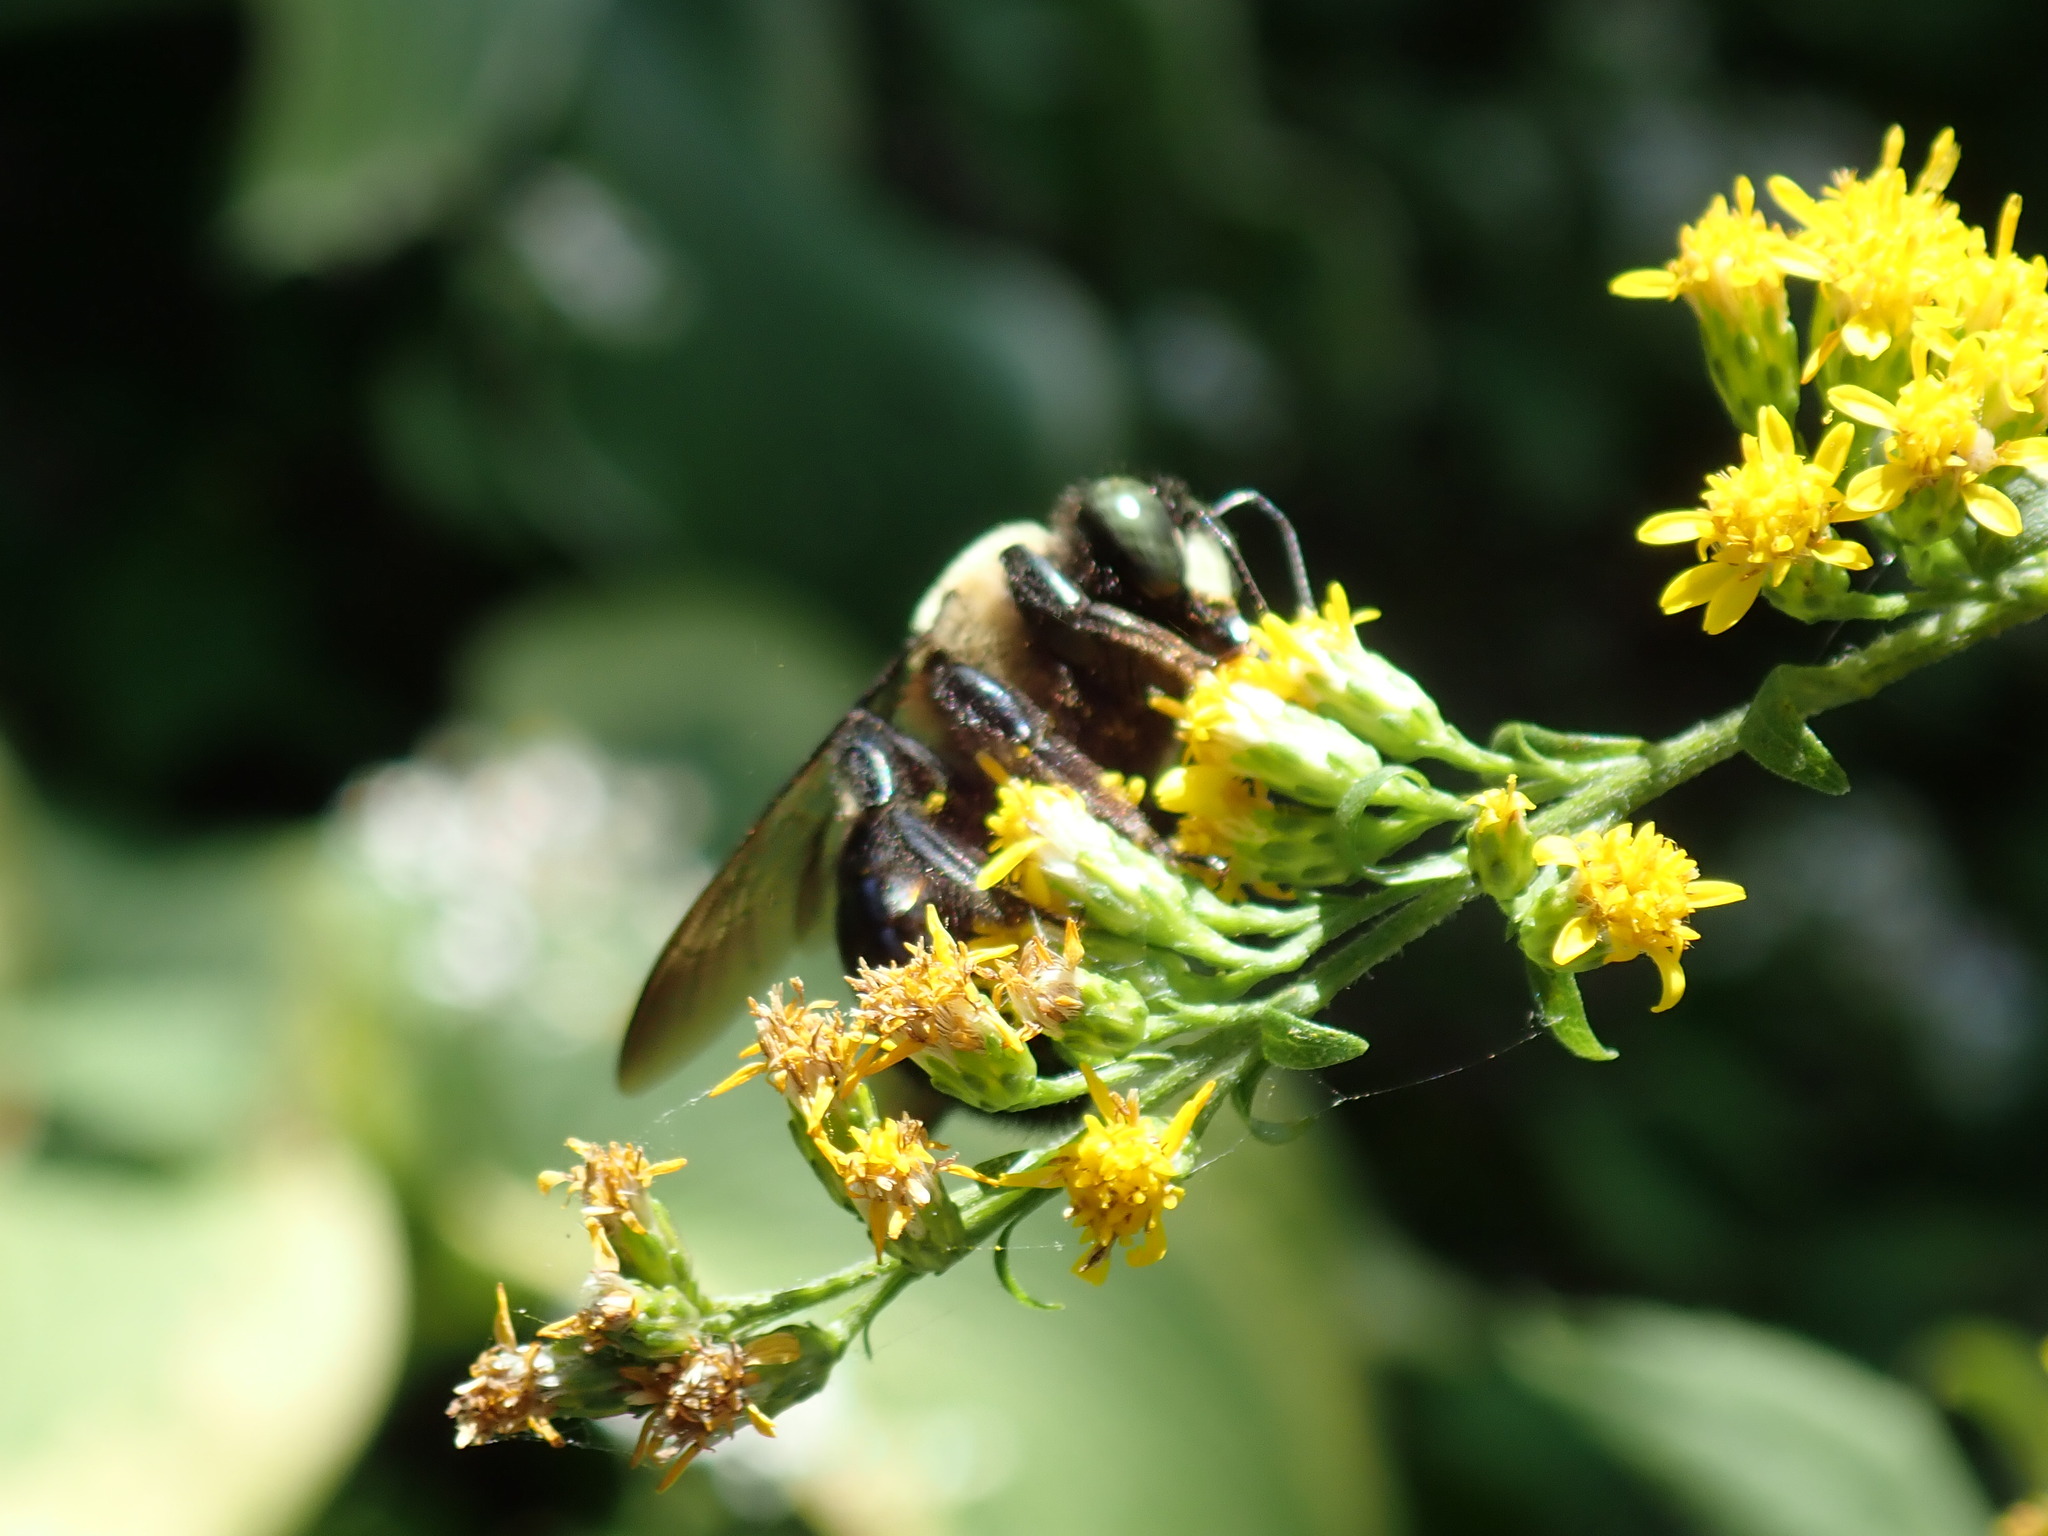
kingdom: Animalia
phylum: Arthropoda
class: Insecta
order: Hymenoptera
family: Apidae
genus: Xylocopa
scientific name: Xylocopa virginica
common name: Carpenter bee
